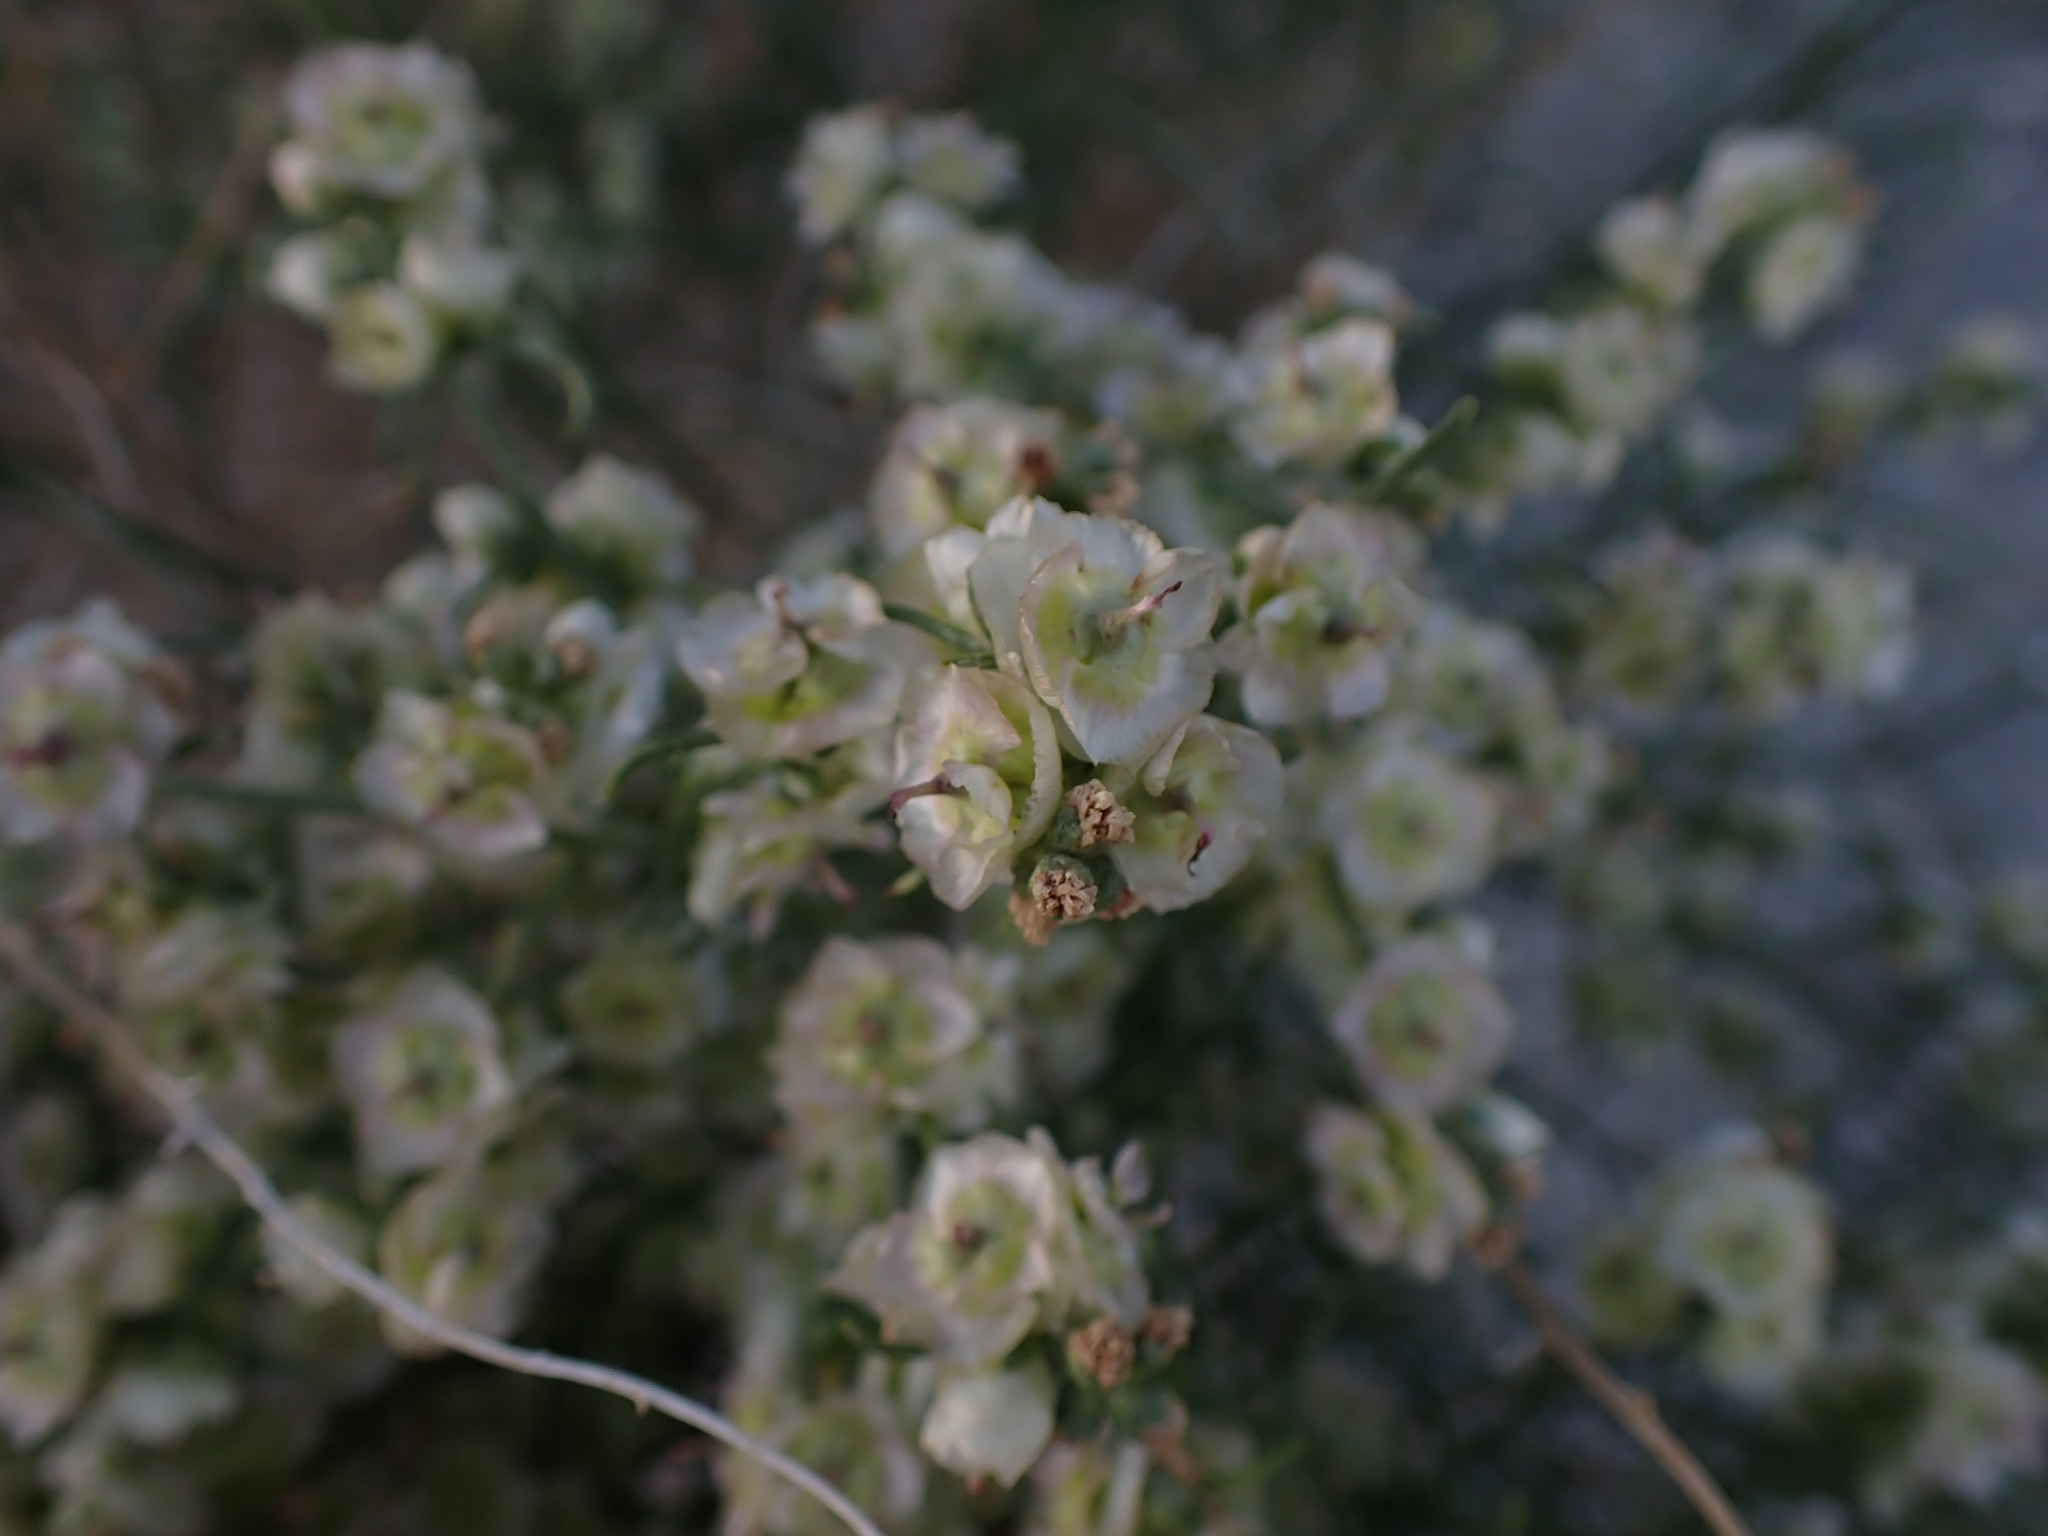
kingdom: Plantae
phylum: Tracheophyta
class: Magnoliopsida
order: Asterales
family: Asteraceae
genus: Ambrosia
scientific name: Ambrosia salsola
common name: Burrobrush
